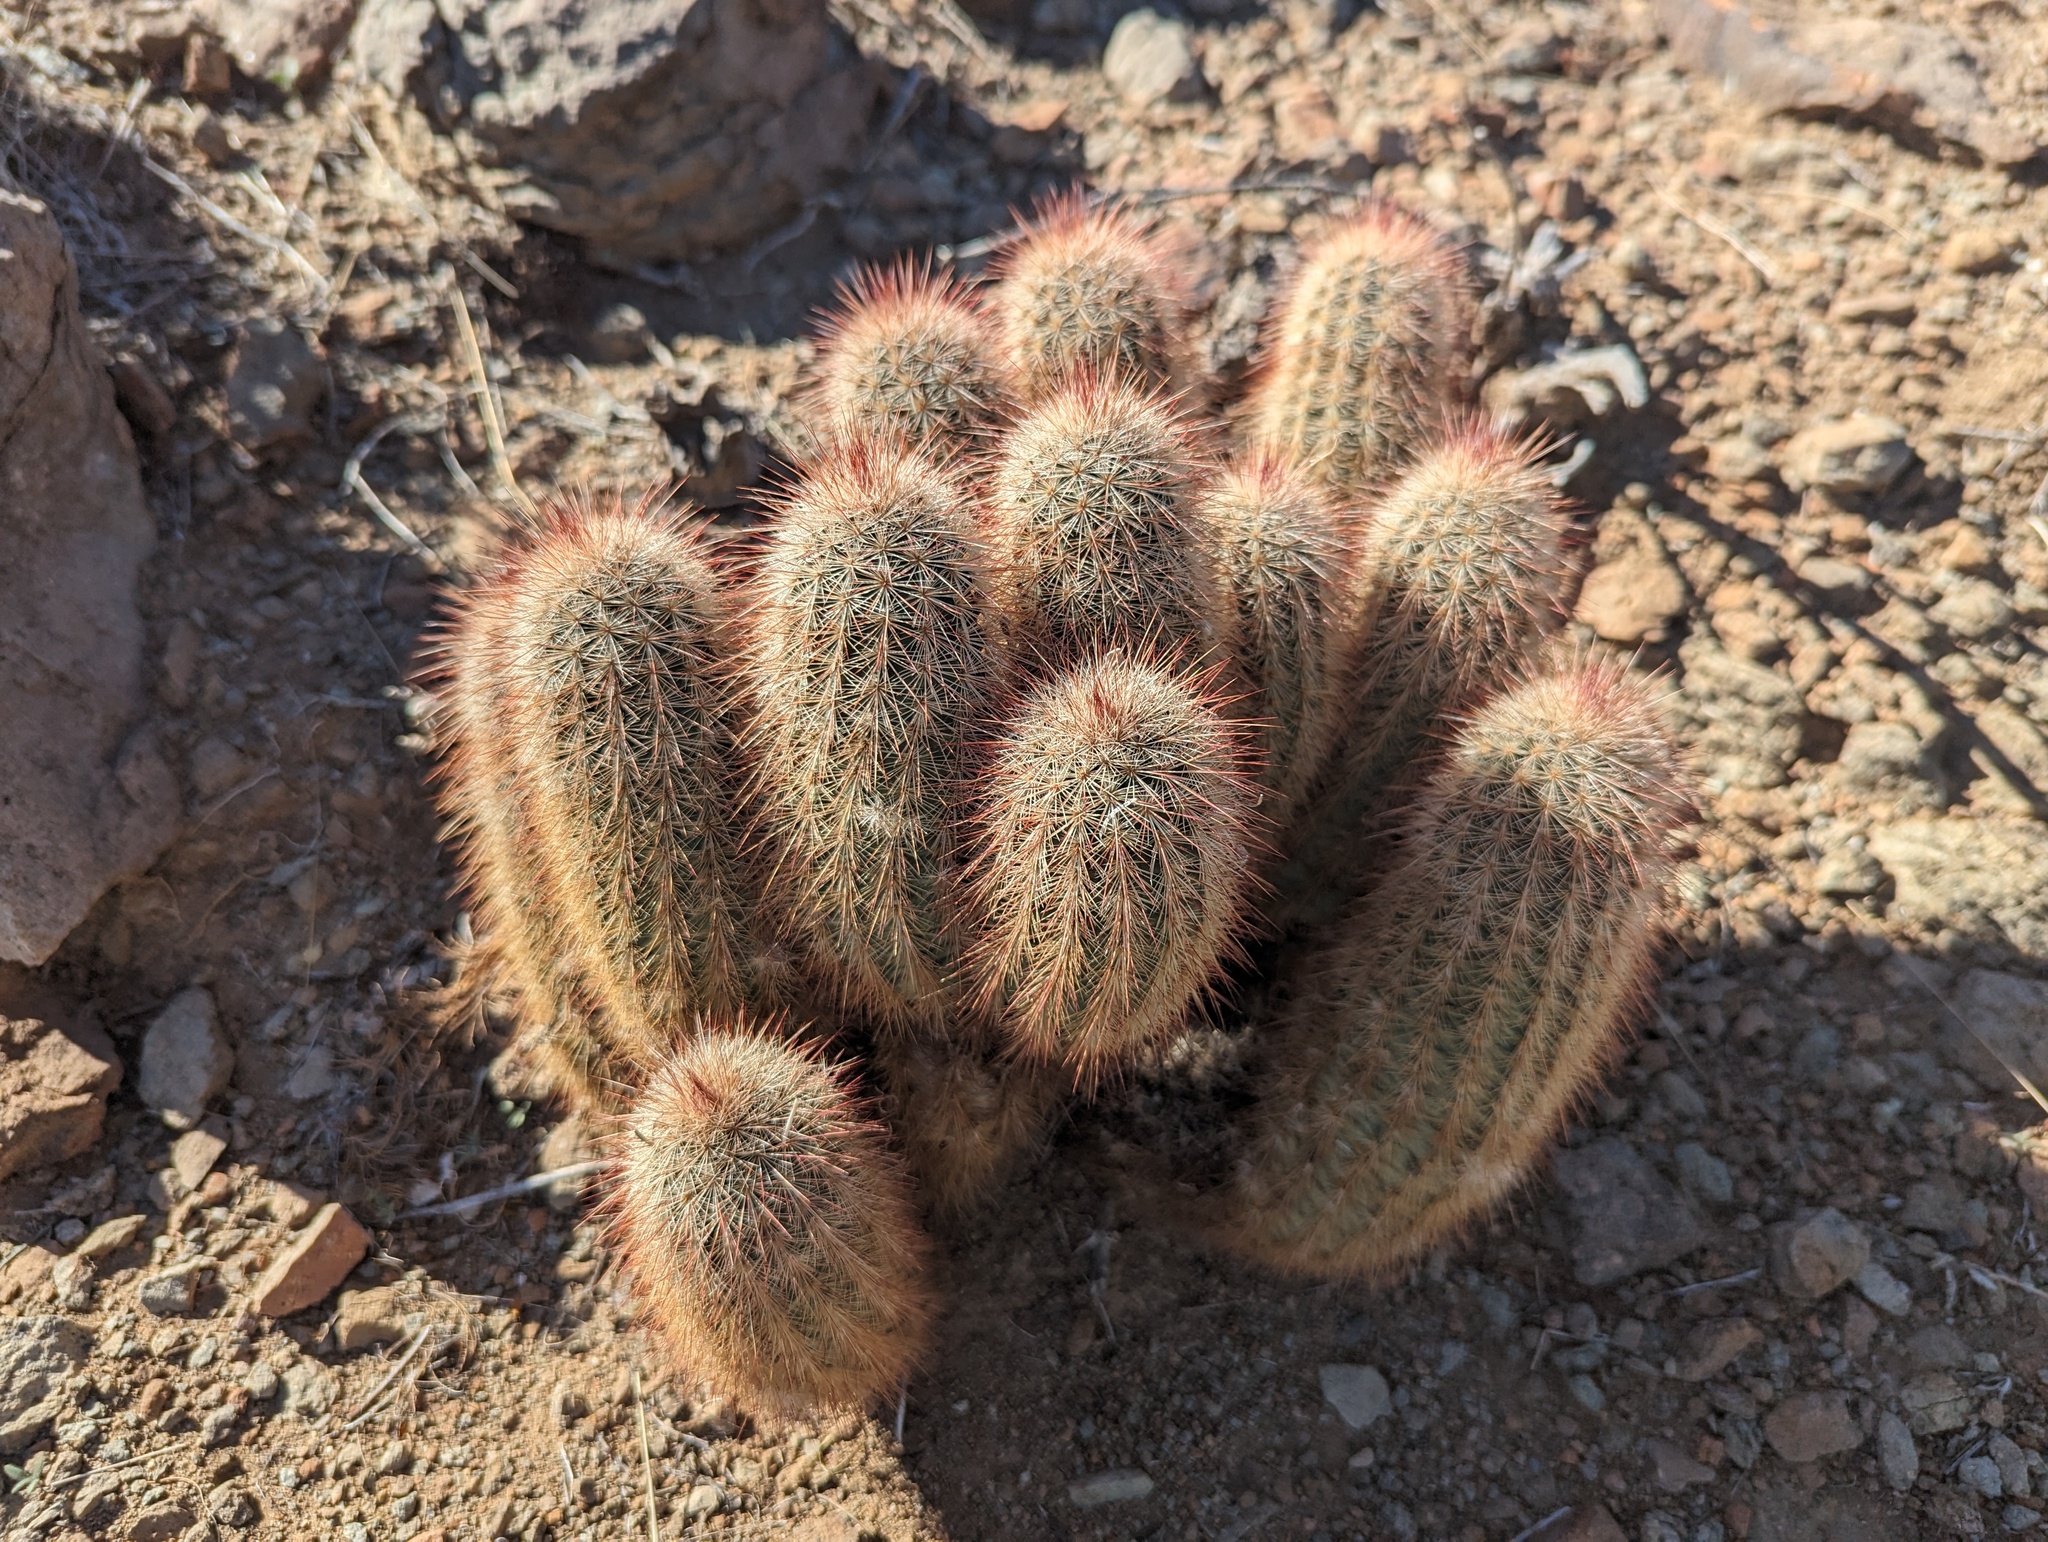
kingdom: Plantae
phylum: Tracheophyta
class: Magnoliopsida
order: Caryophyllales
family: Cactaceae
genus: Echinocereus
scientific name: Echinocereus russanthus
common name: Brownspine hedgehog cactus
